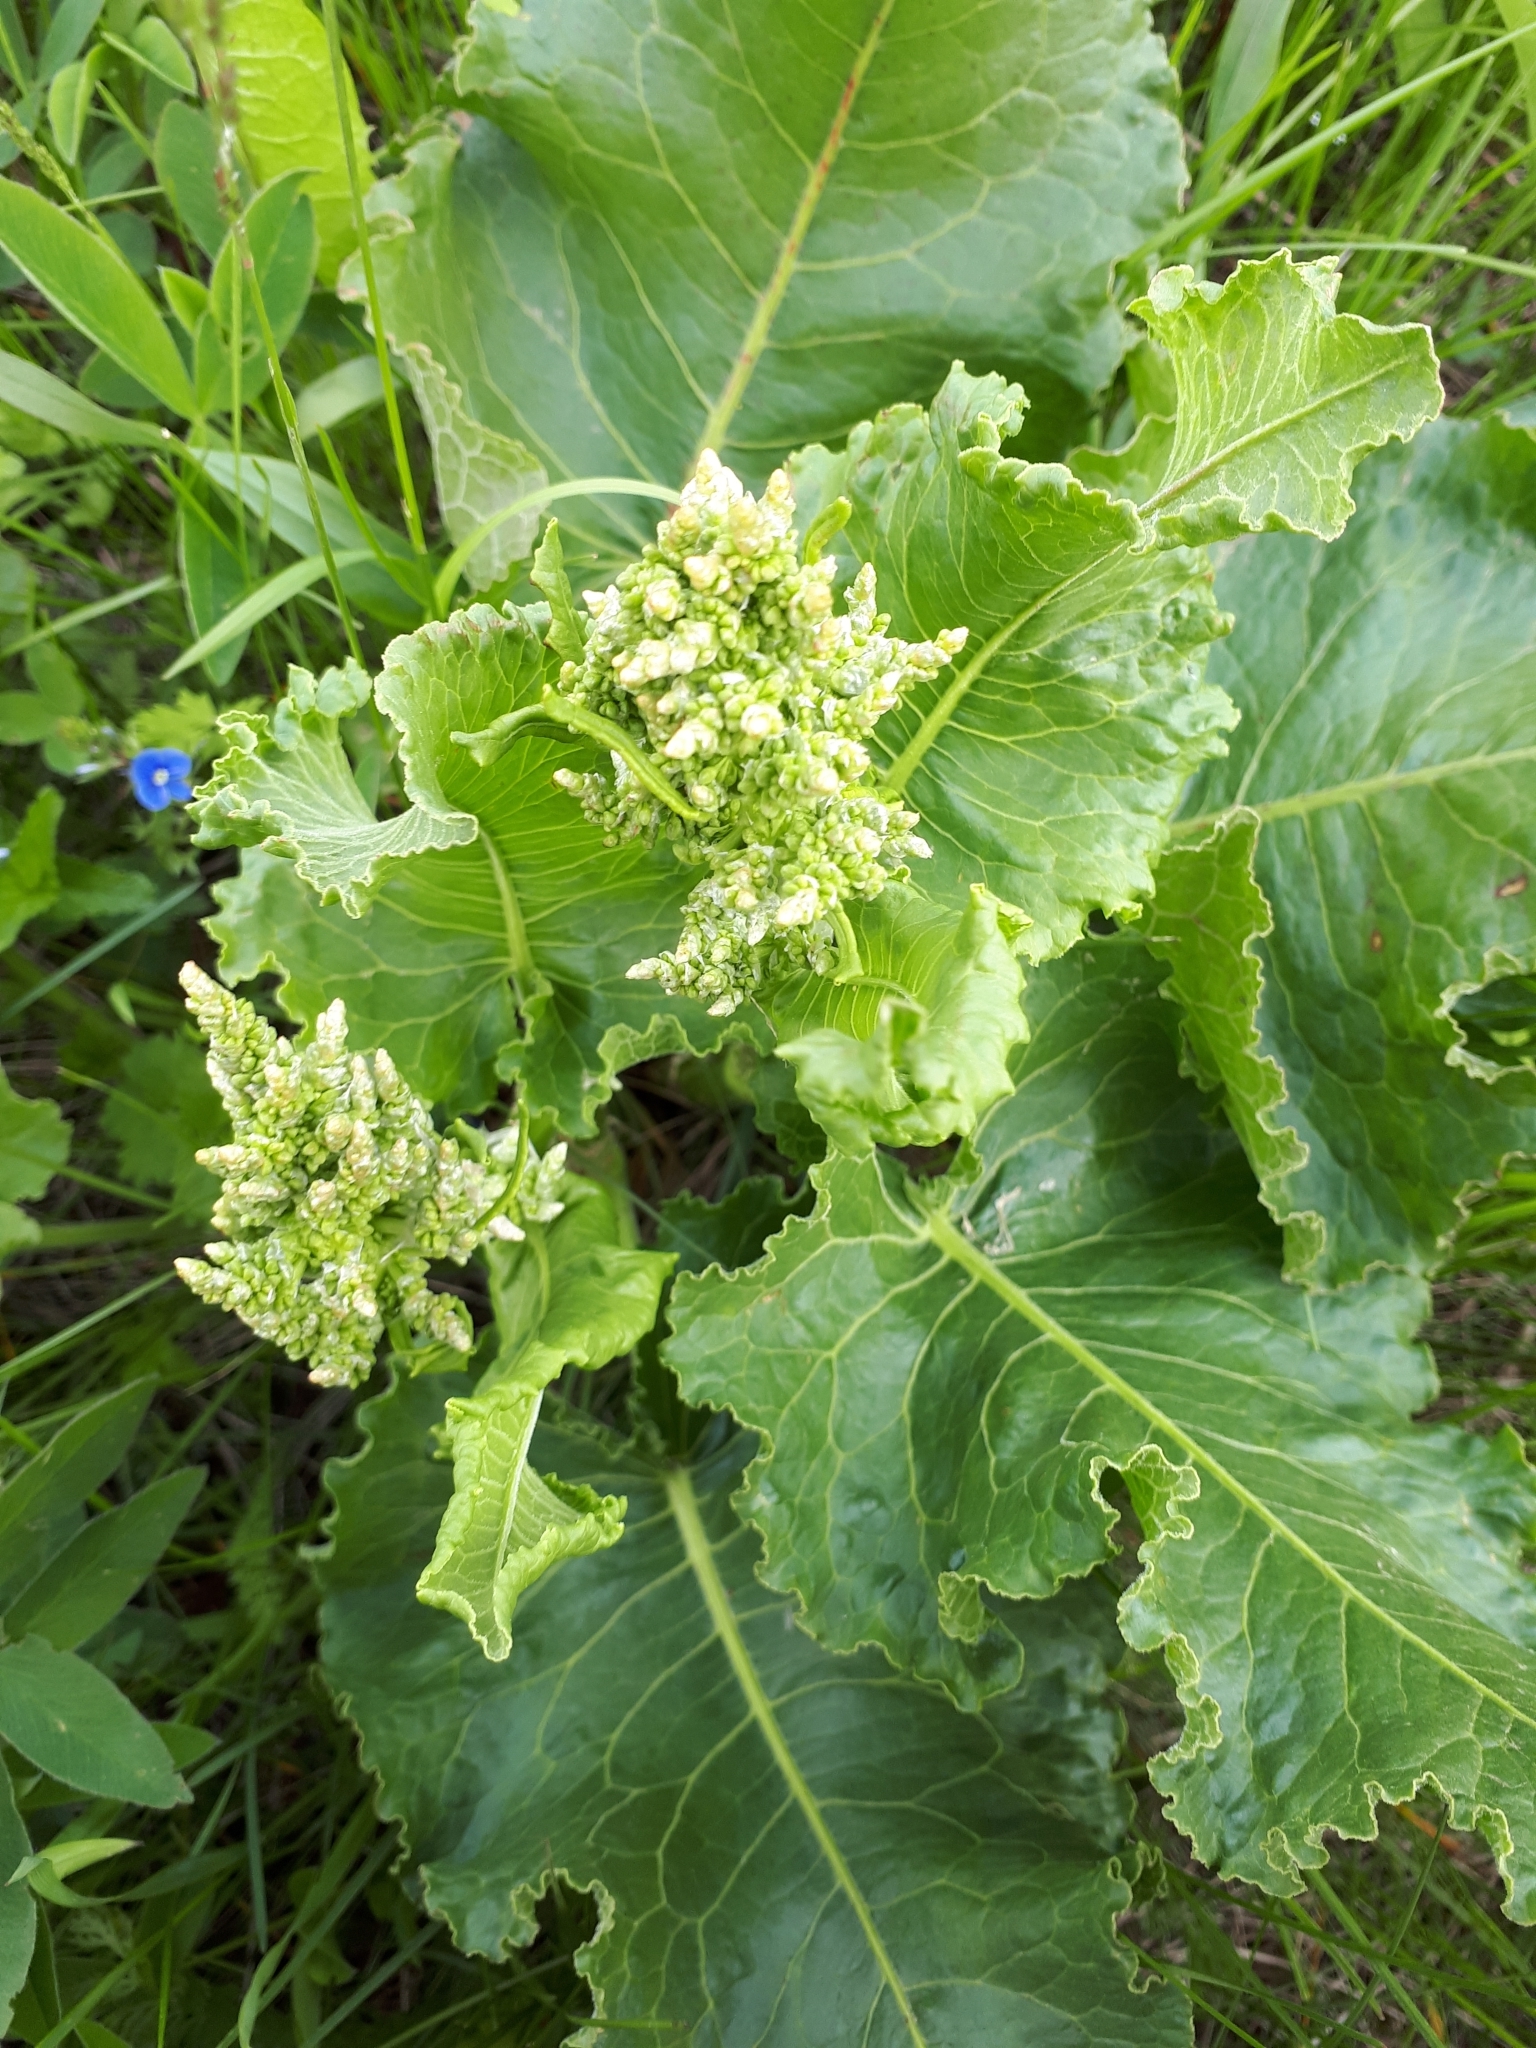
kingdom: Plantae
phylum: Tracheophyta
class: Magnoliopsida
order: Caryophyllales
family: Polygonaceae
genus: Rumex
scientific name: Rumex confertus
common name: Russian dock
